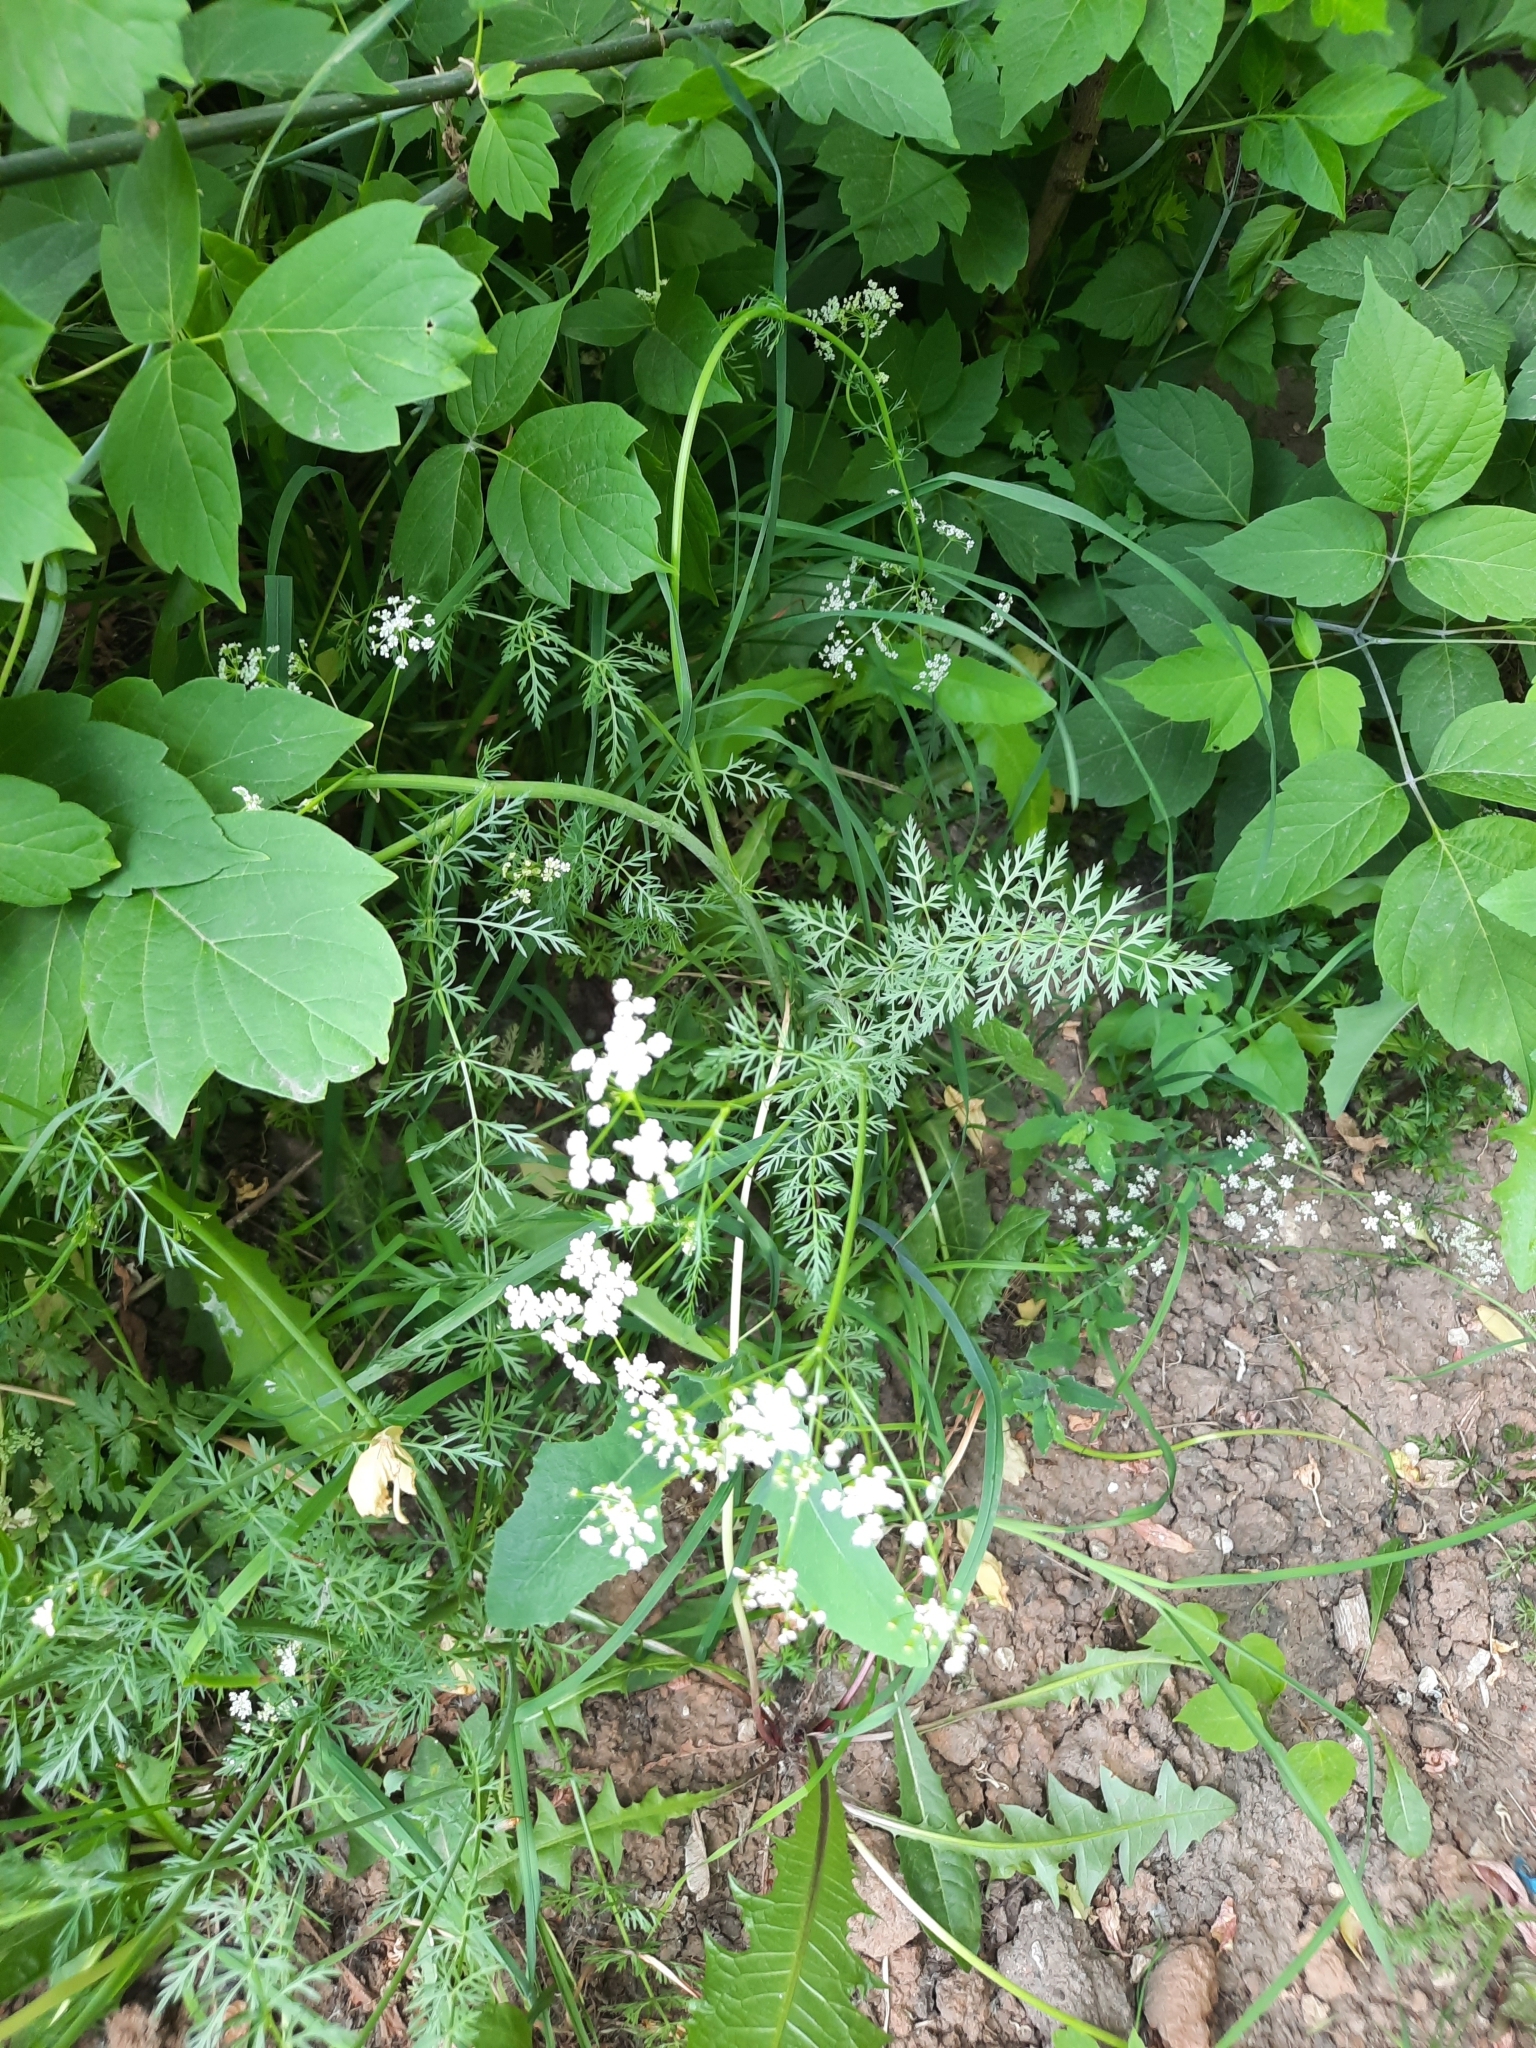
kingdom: Plantae
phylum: Tracheophyta
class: Magnoliopsida
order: Apiales
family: Apiaceae
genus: Carum
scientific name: Carum carvi
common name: Caraway
